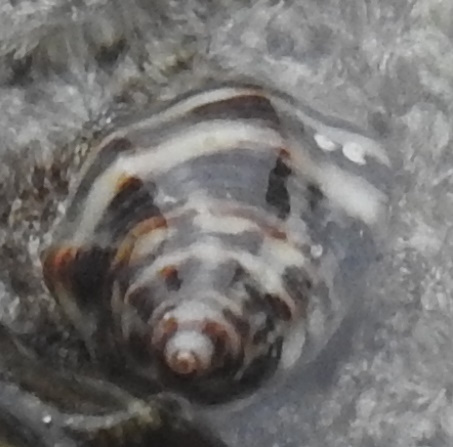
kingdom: Animalia
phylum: Mollusca
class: Gastropoda
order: Neogastropoda
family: Muricidae
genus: Vasula
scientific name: Vasula deltoidea
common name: Deltoid rocksnail
